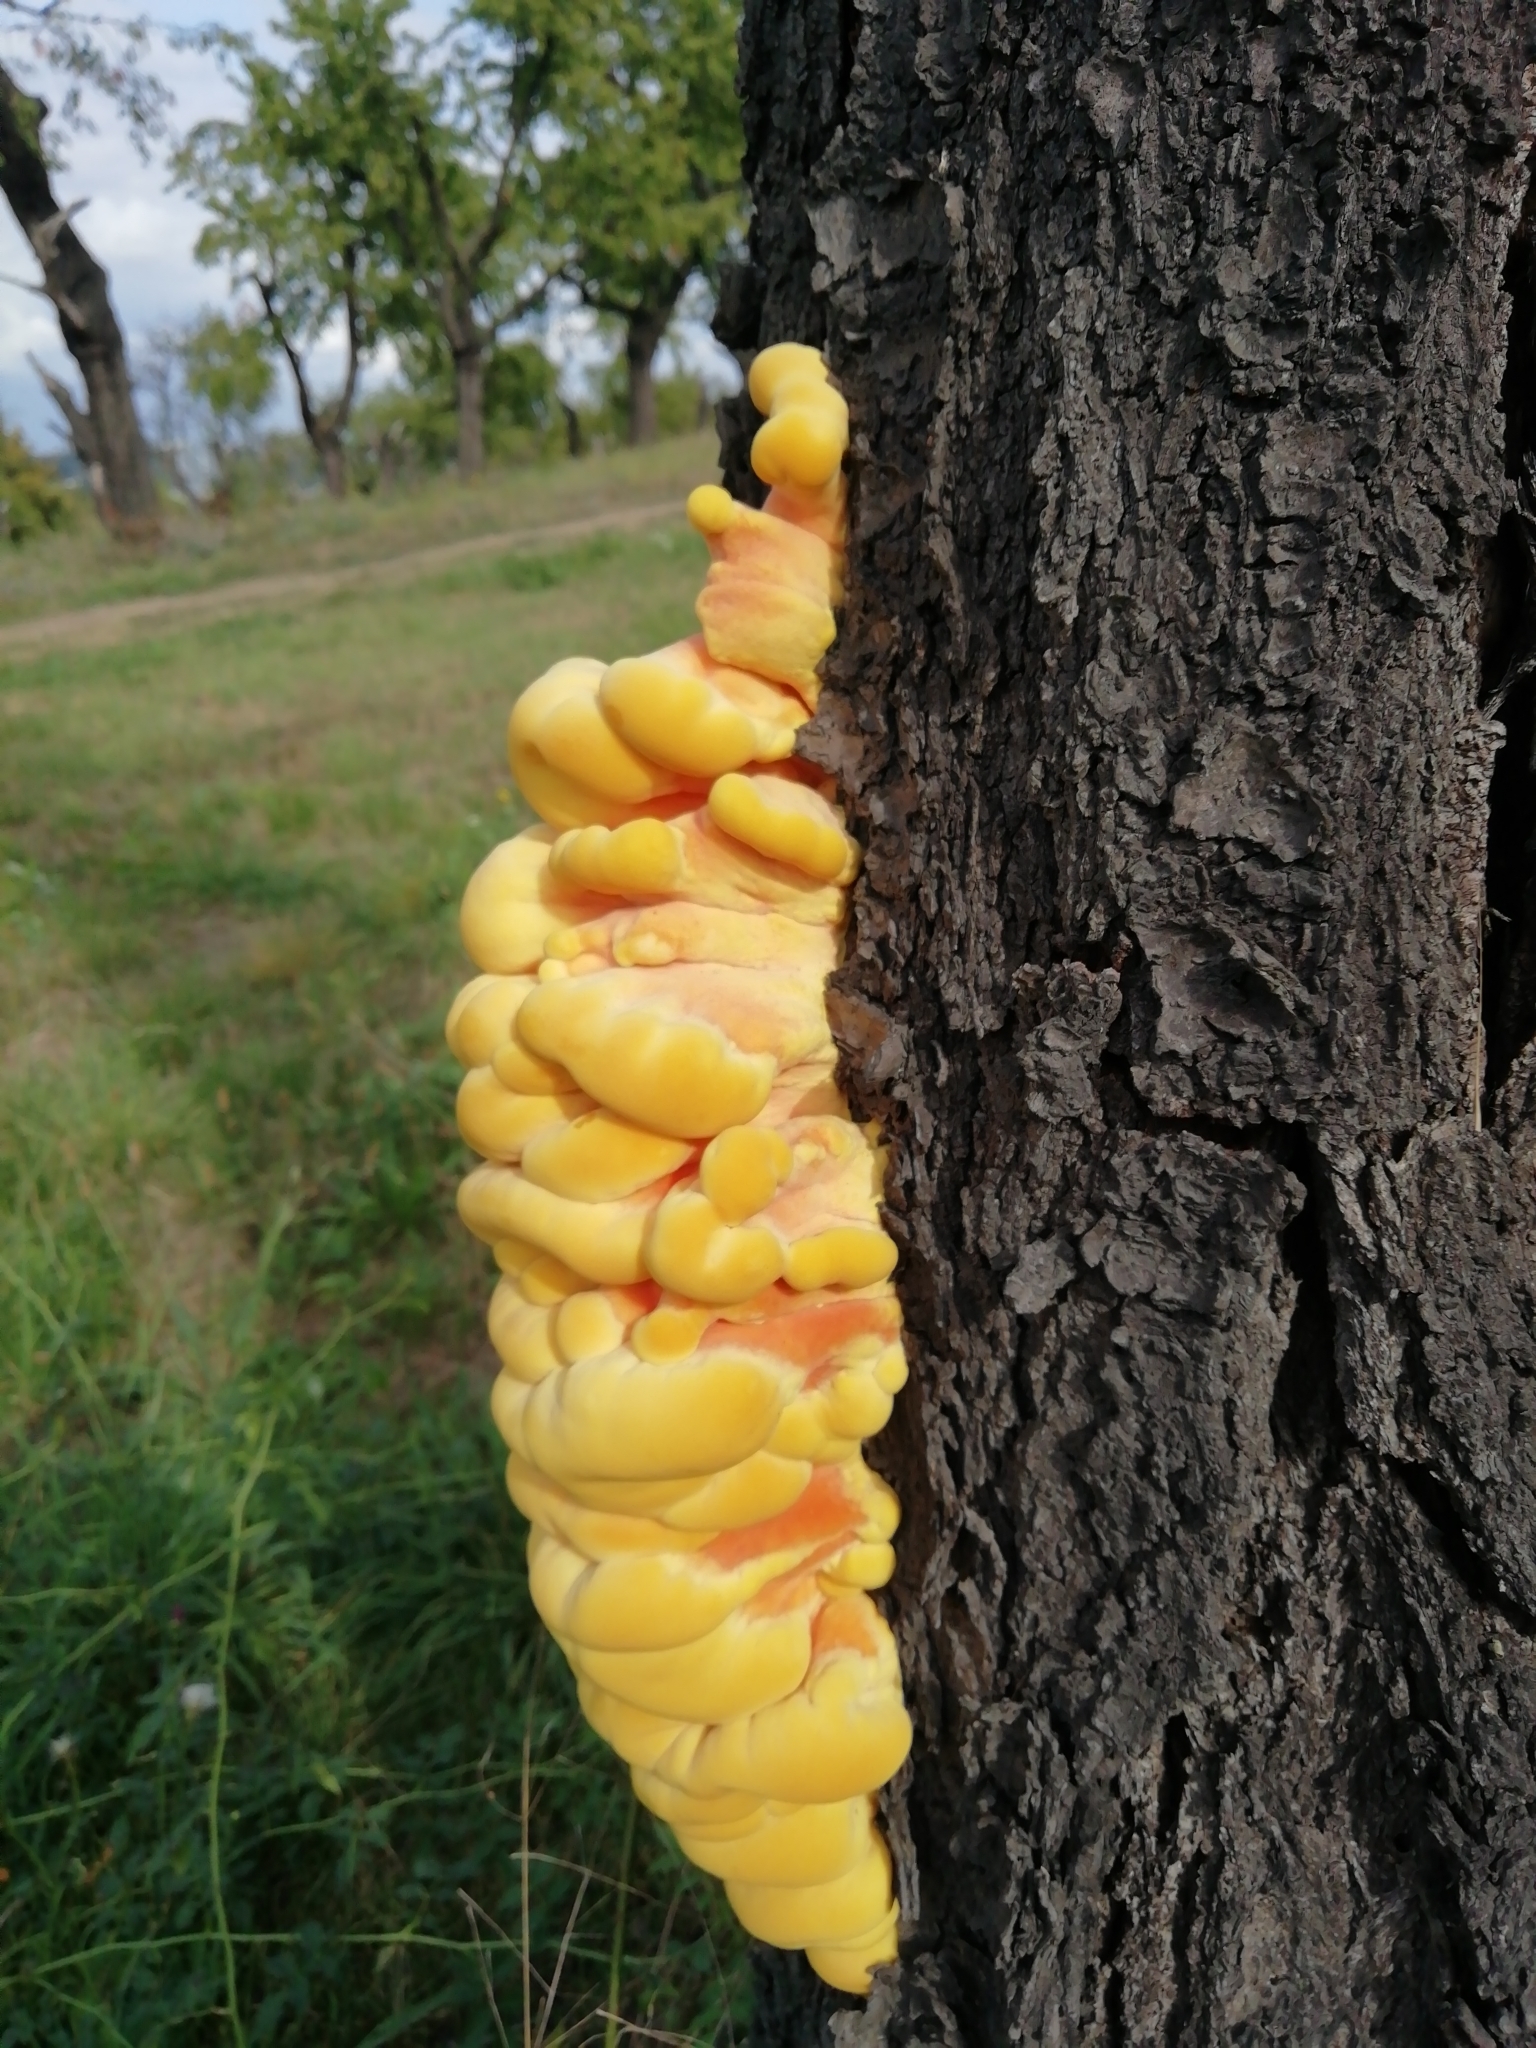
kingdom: Fungi
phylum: Basidiomycota
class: Agaricomycetes
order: Polyporales
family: Laetiporaceae
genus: Laetiporus
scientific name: Laetiporus sulphureus
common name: Chicken of the woods
